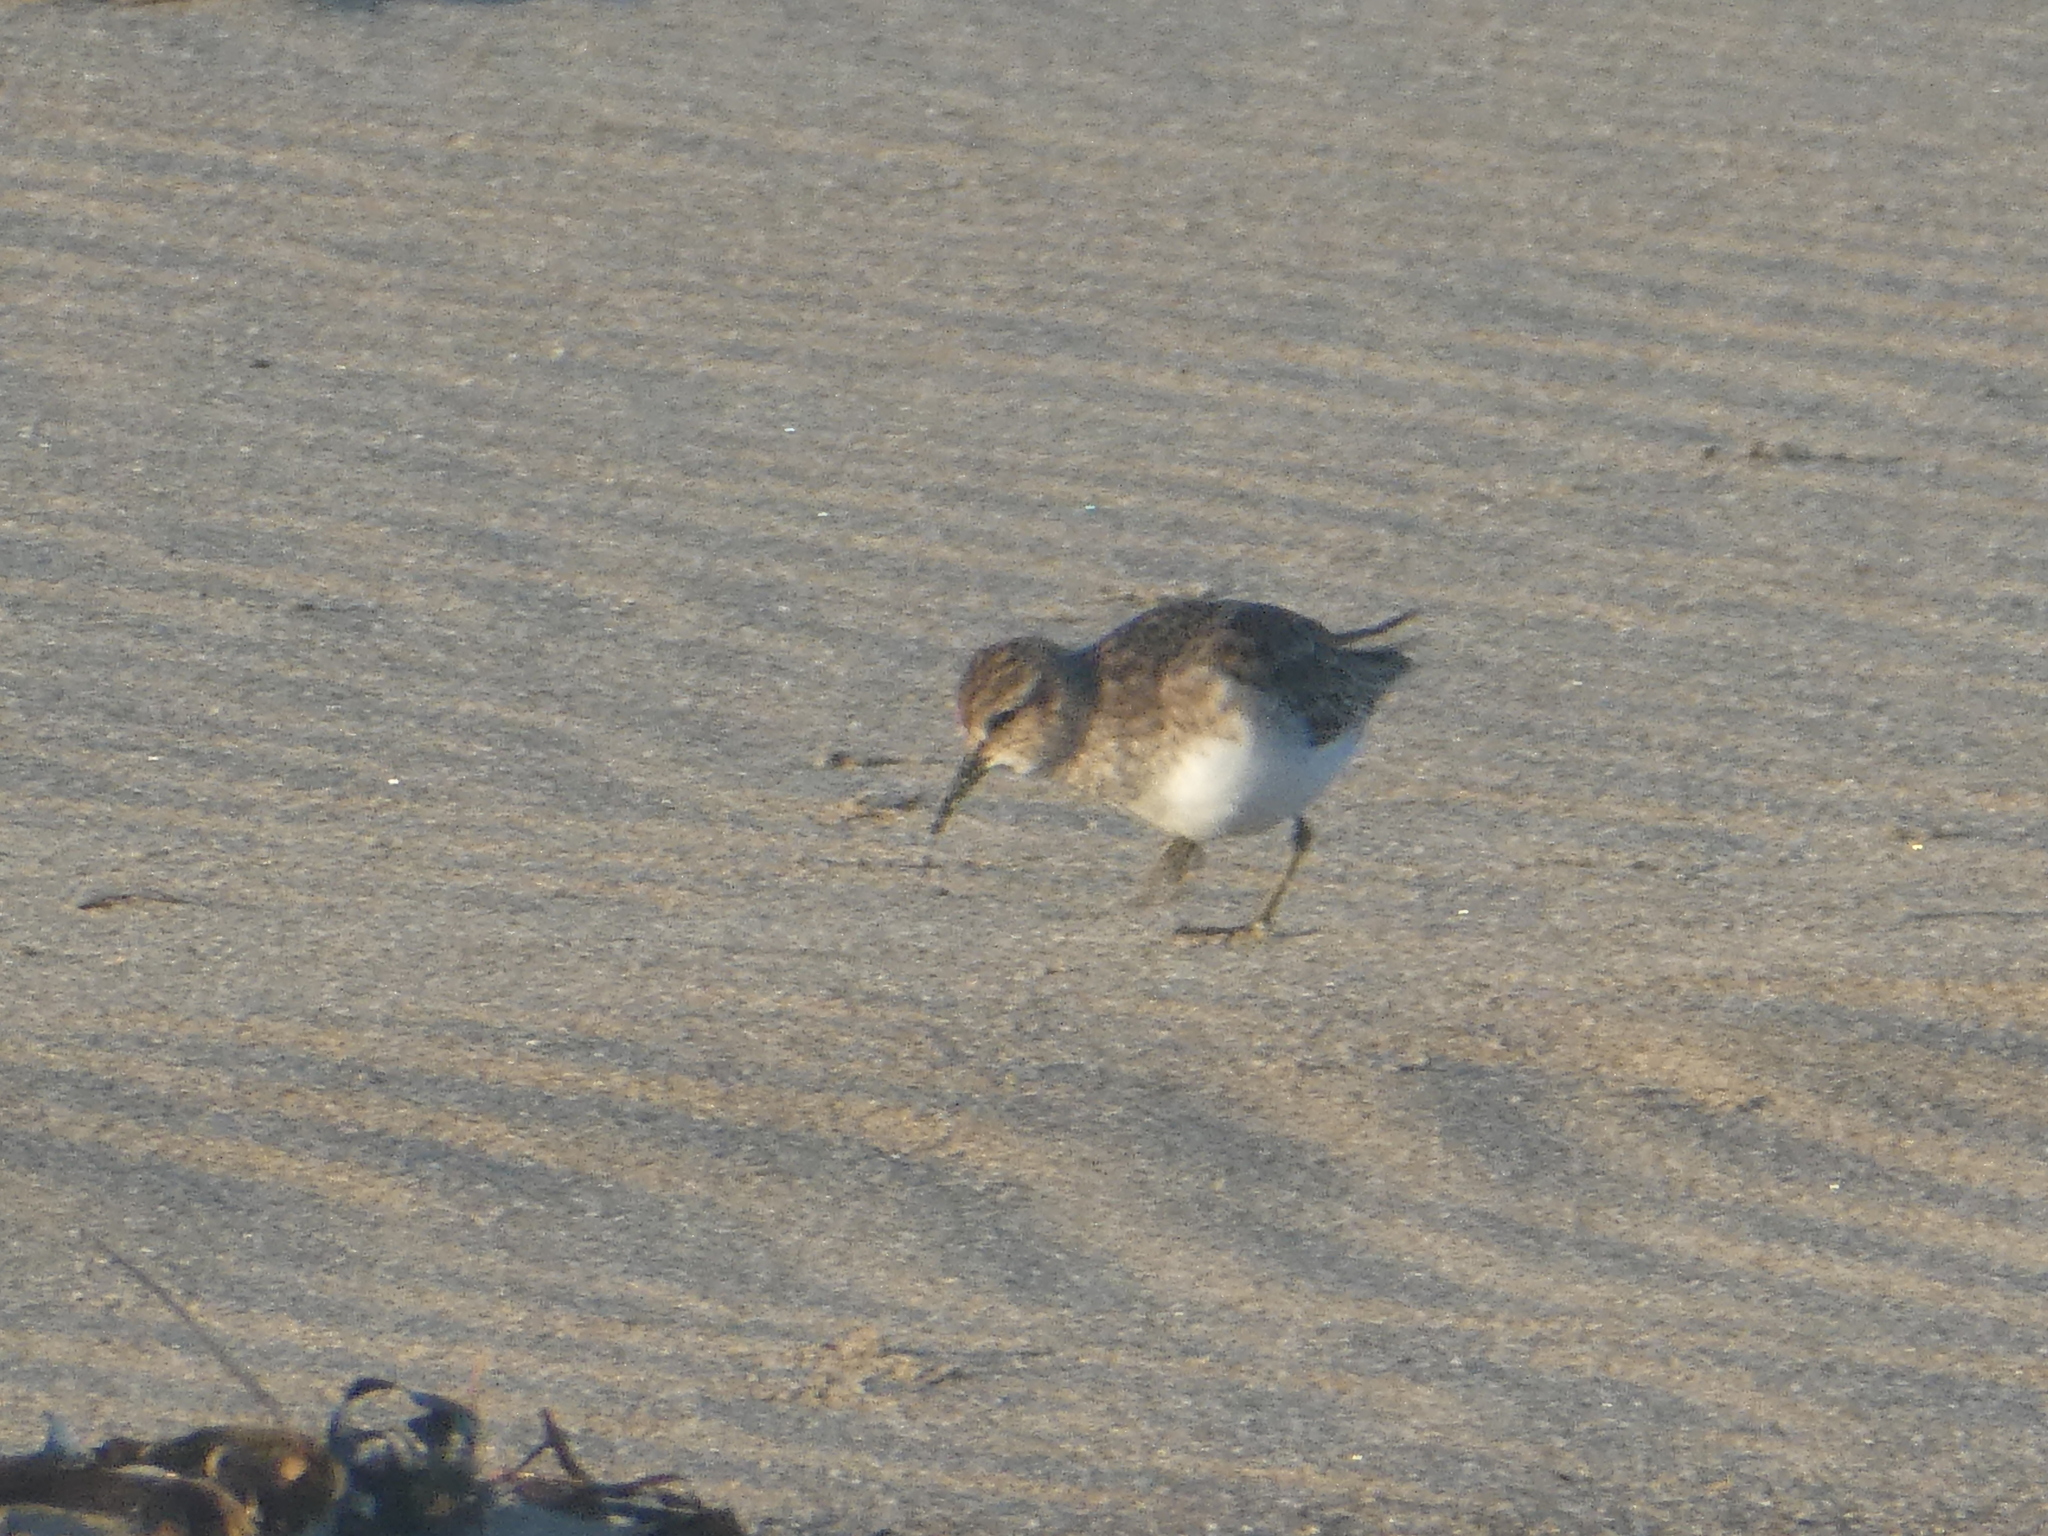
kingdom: Animalia
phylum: Chordata
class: Aves
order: Charadriiformes
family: Scolopacidae
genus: Calidris
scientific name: Calidris minutilla
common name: Least sandpiper
